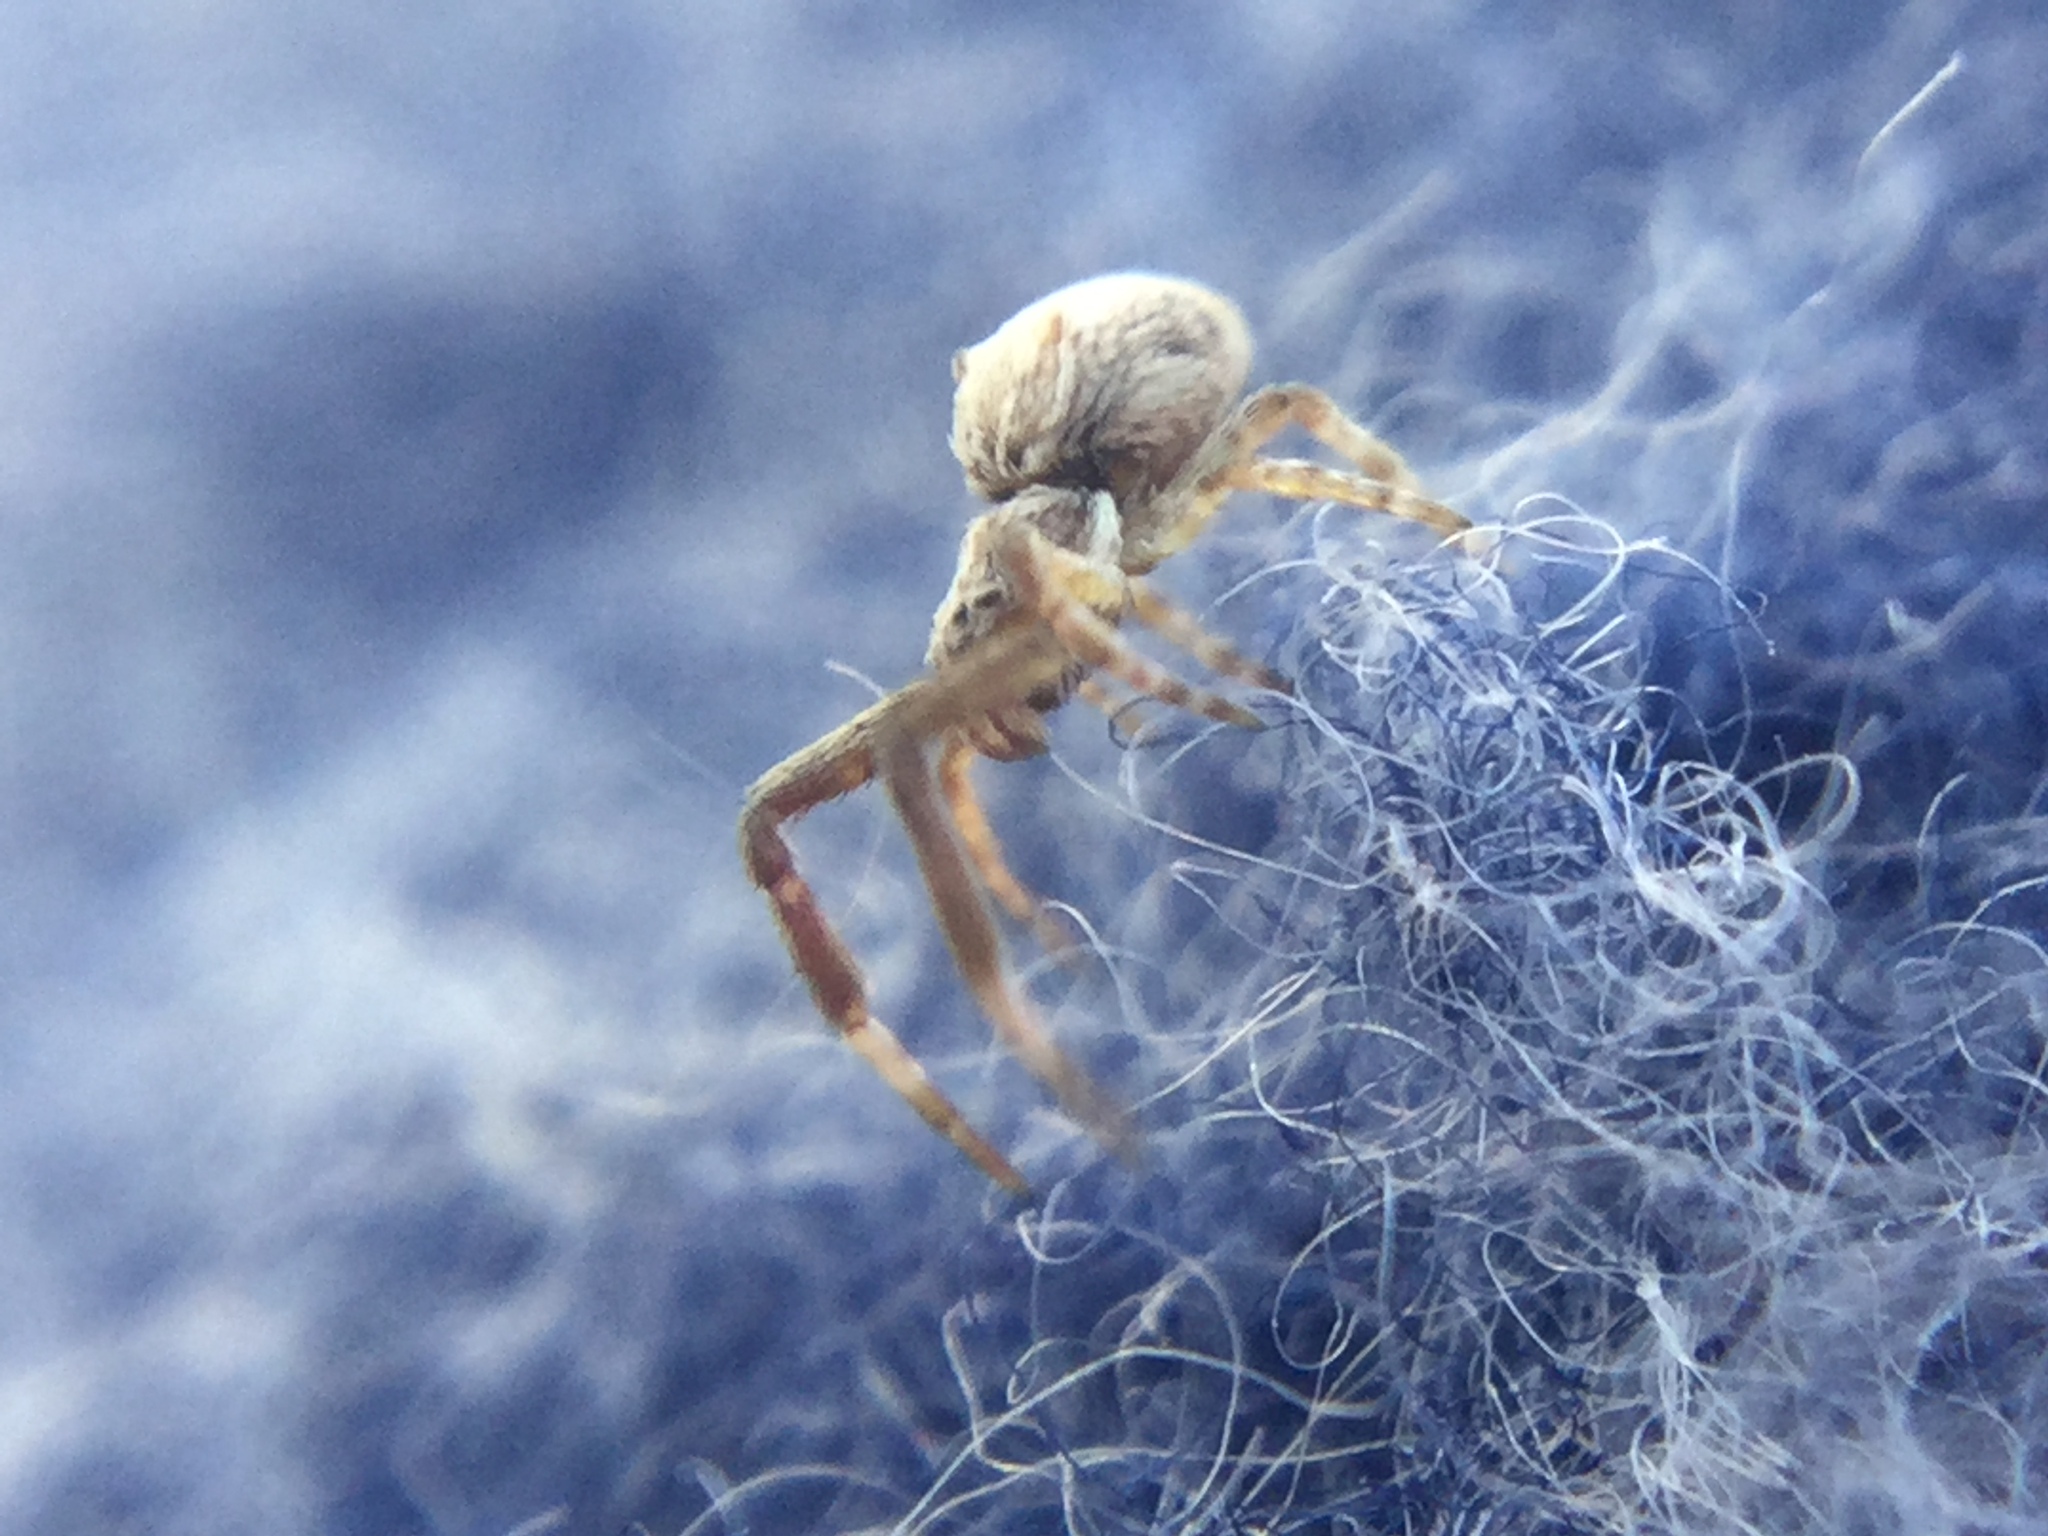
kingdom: Animalia
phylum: Arthropoda
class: Arachnida
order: Araneae
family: Uloboridae
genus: Uloborus
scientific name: Uloborus glomosus
